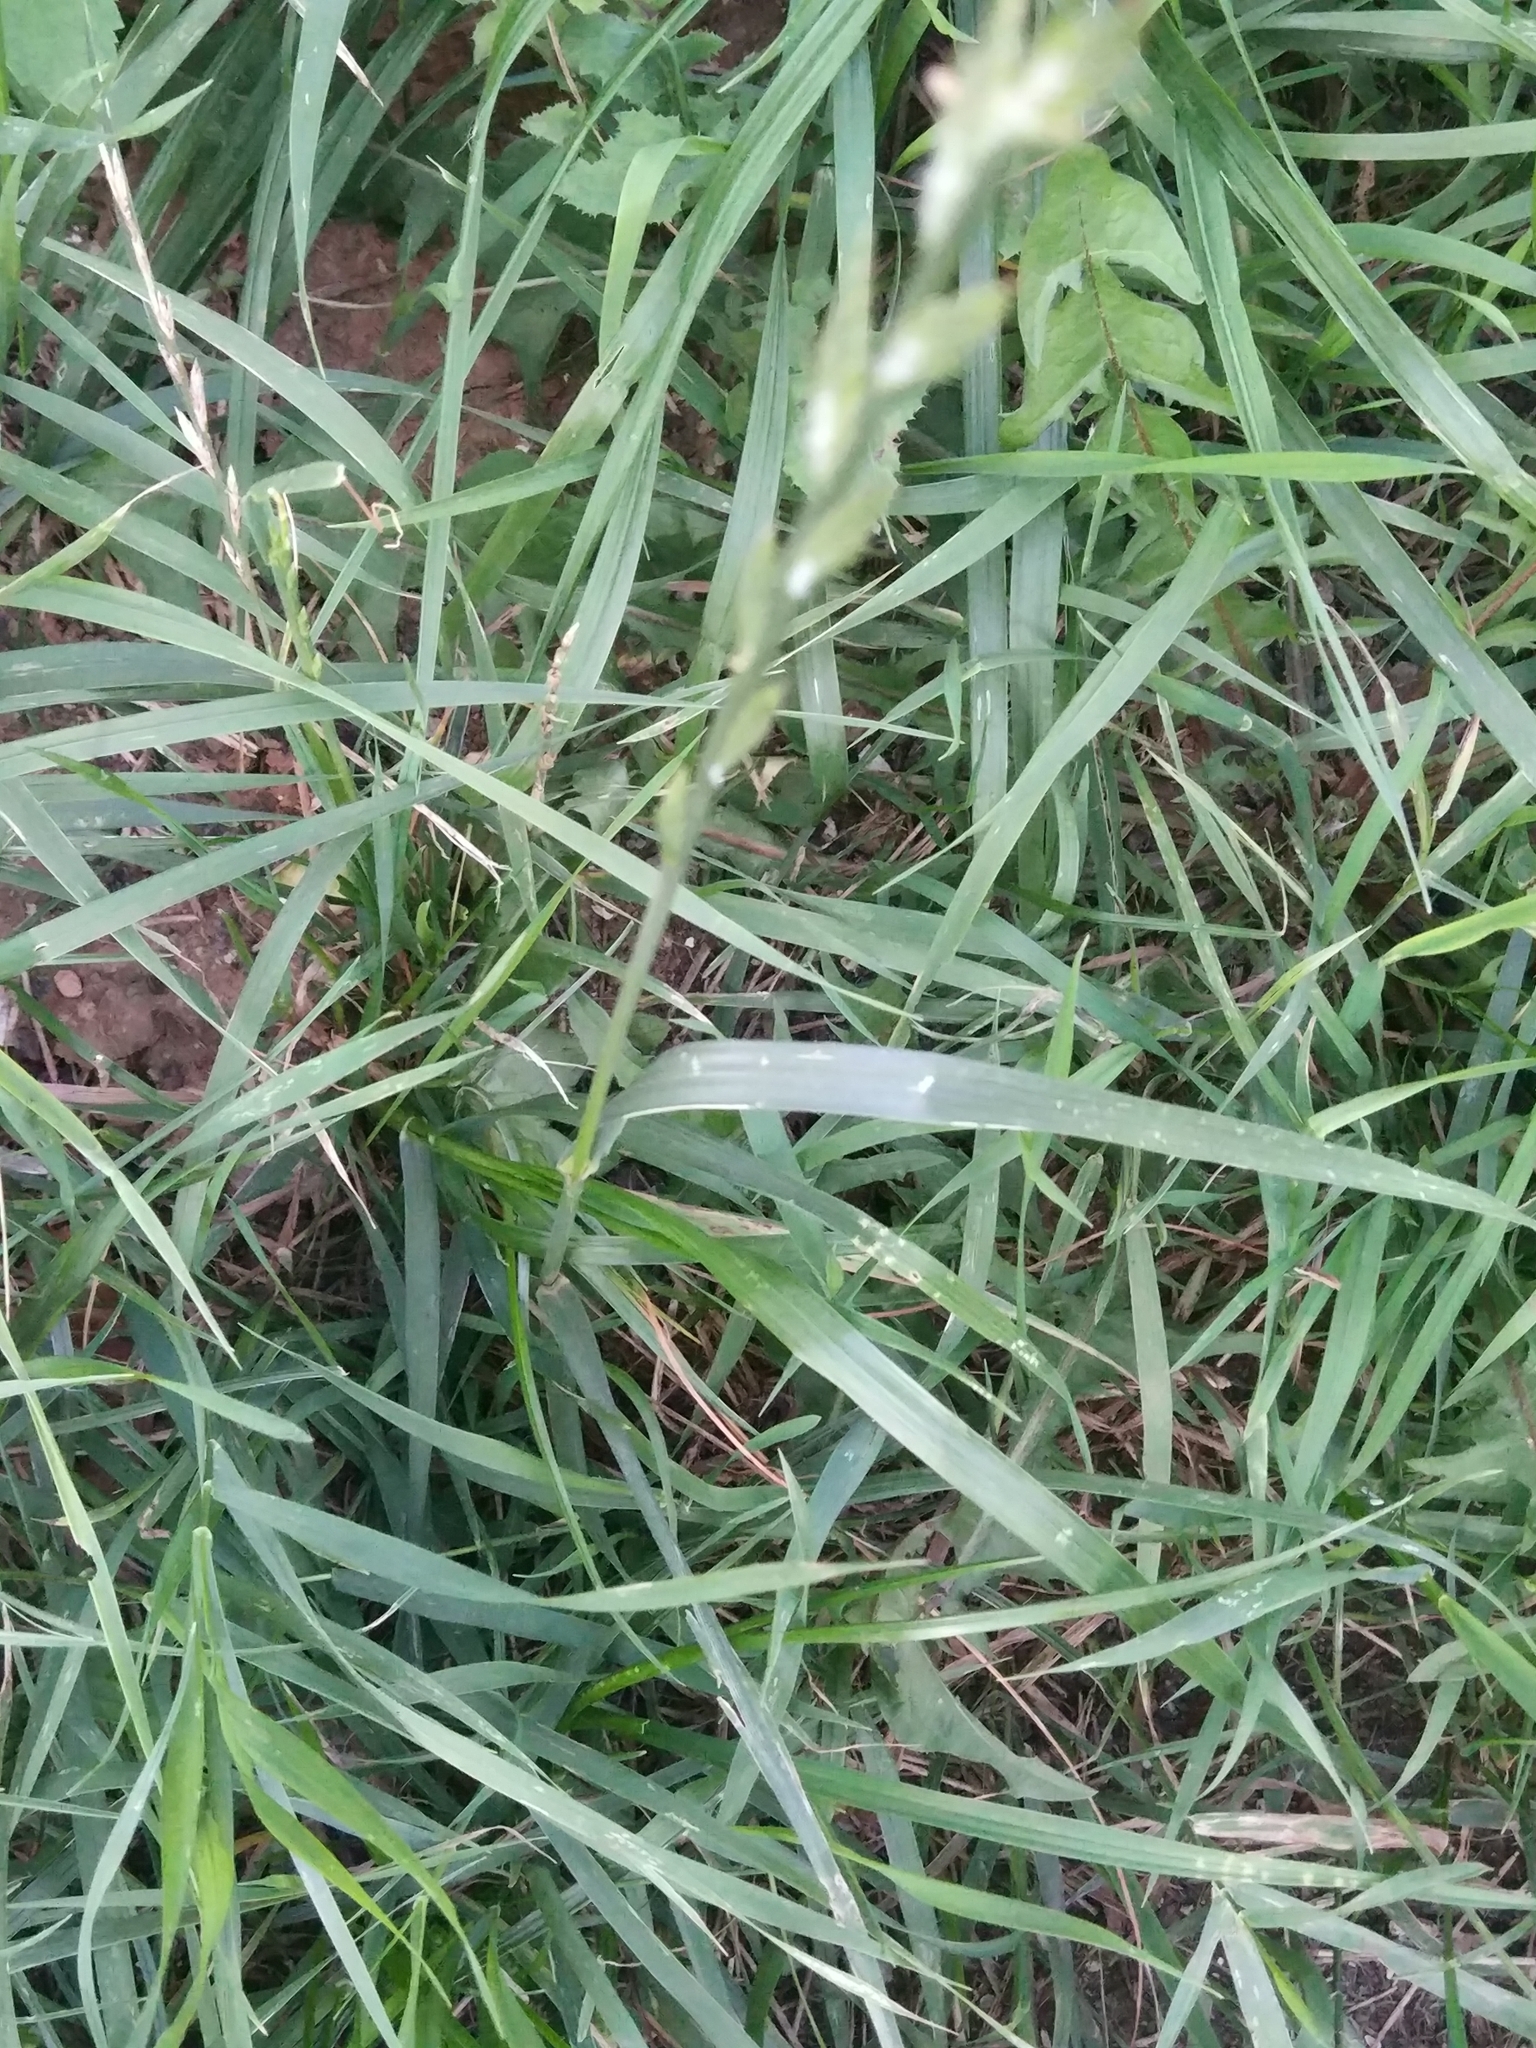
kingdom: Plantae
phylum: Tracheophyta
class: Liliopsida
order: Poales
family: Poaceae
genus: Lolium
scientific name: Lolium perenne
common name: Perennial ryegrass
